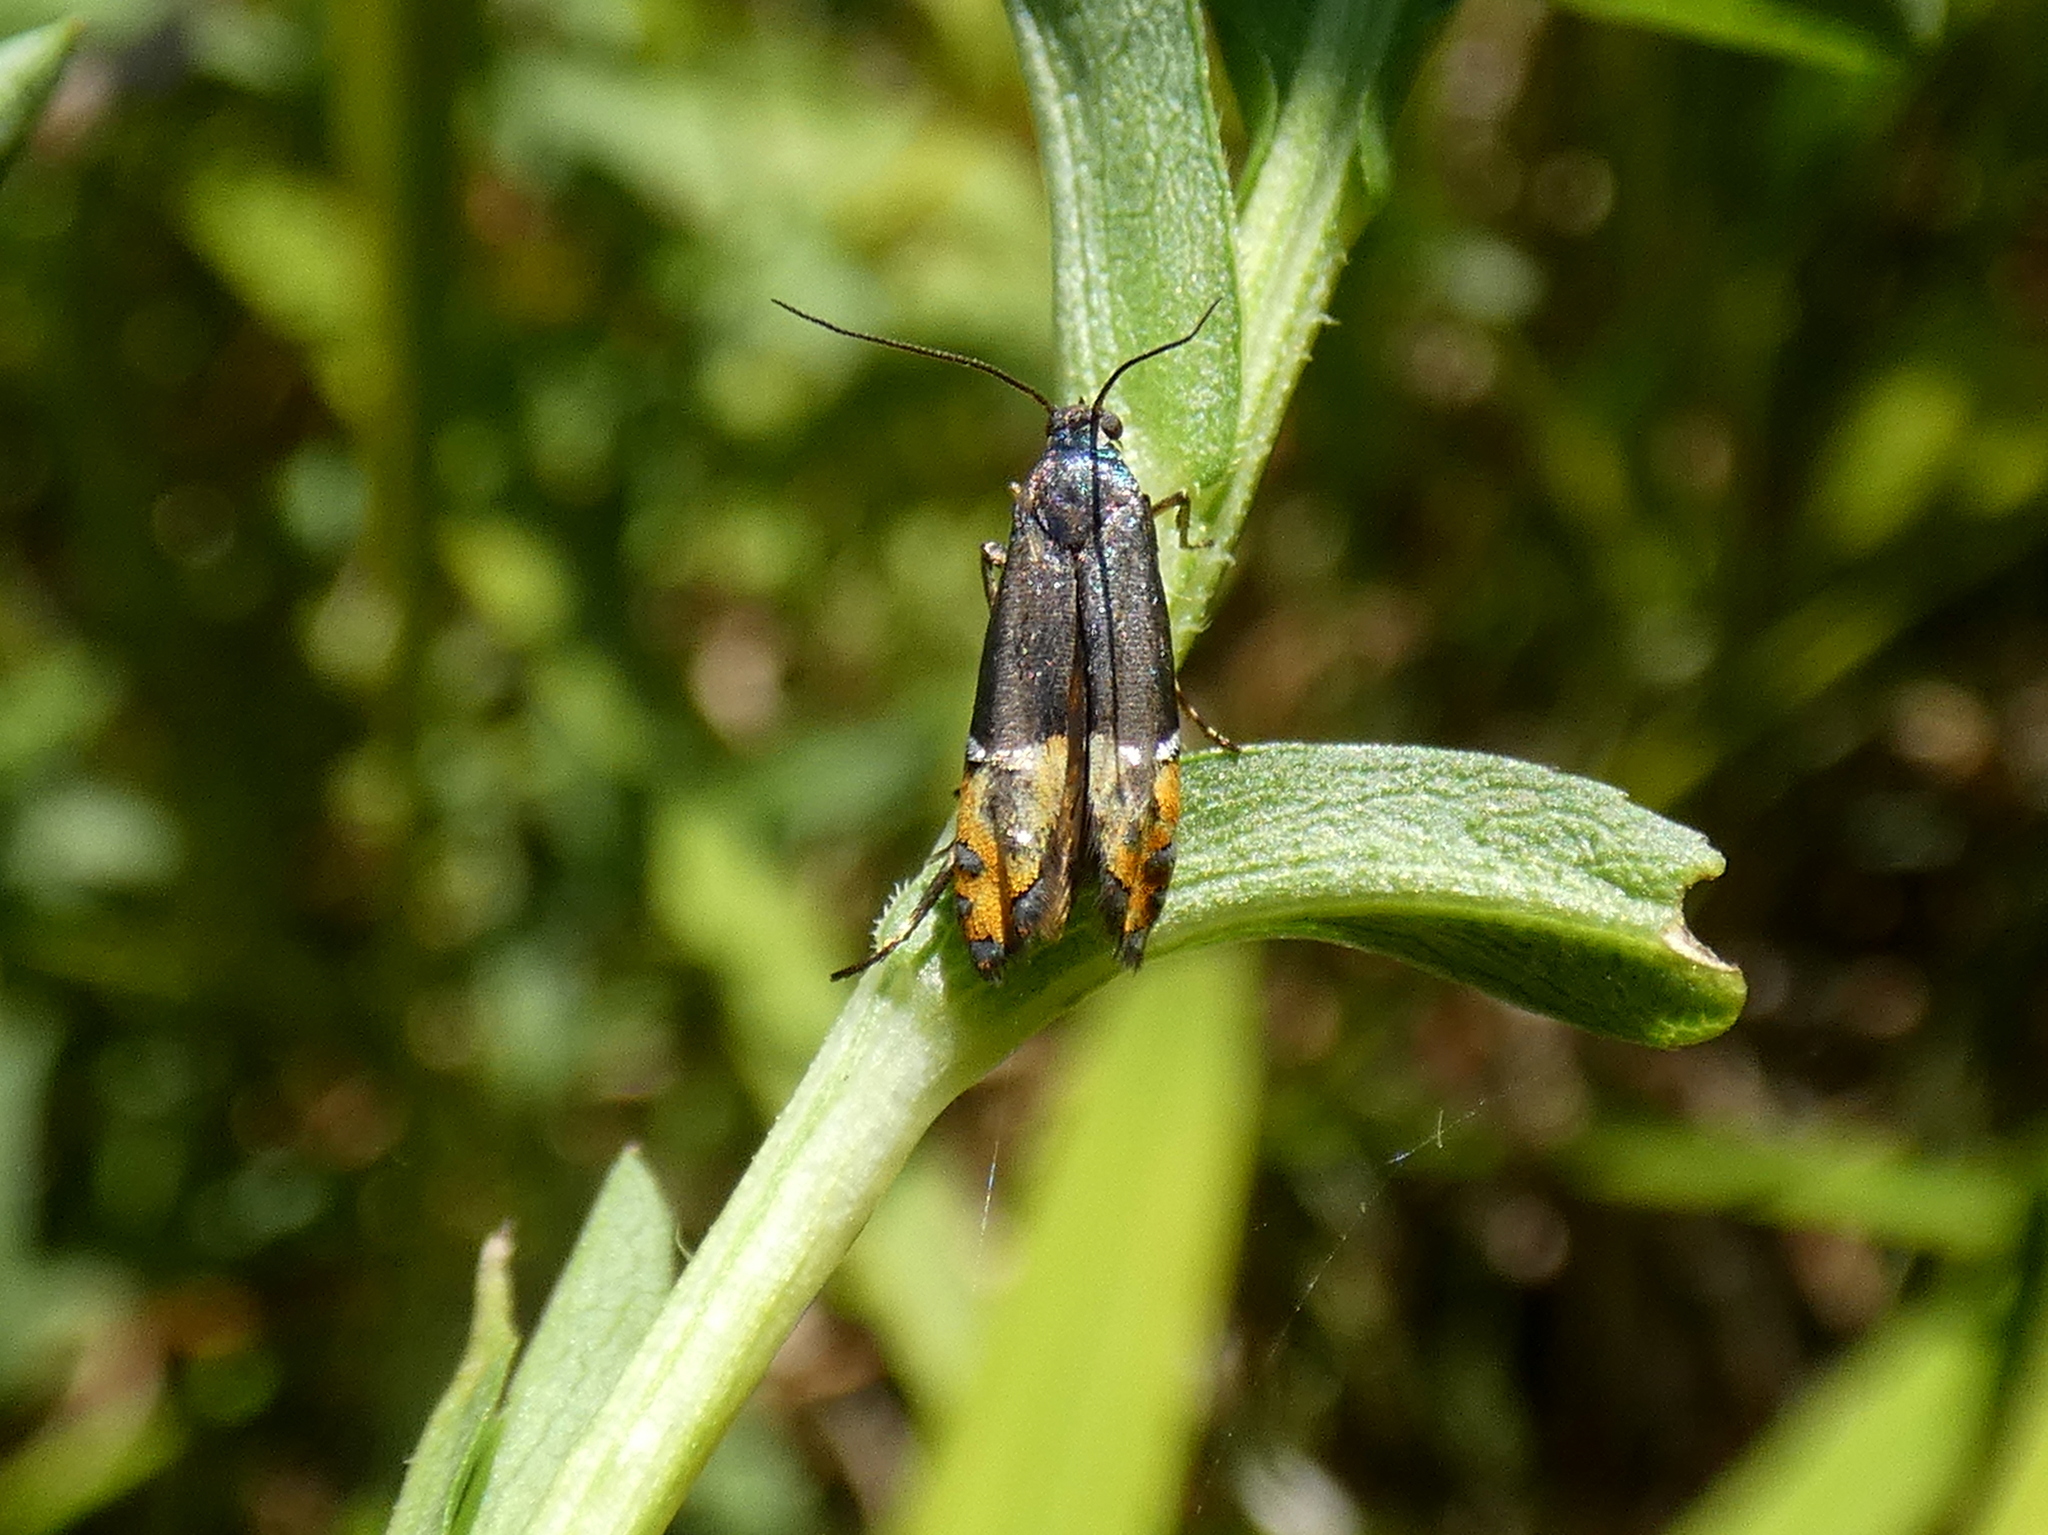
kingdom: Animalia
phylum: Arthropoda
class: Insecta
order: Lepidoptera
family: Glyphipterigidae
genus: Lepidotarphius
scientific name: Lepidotarphius perornatella
